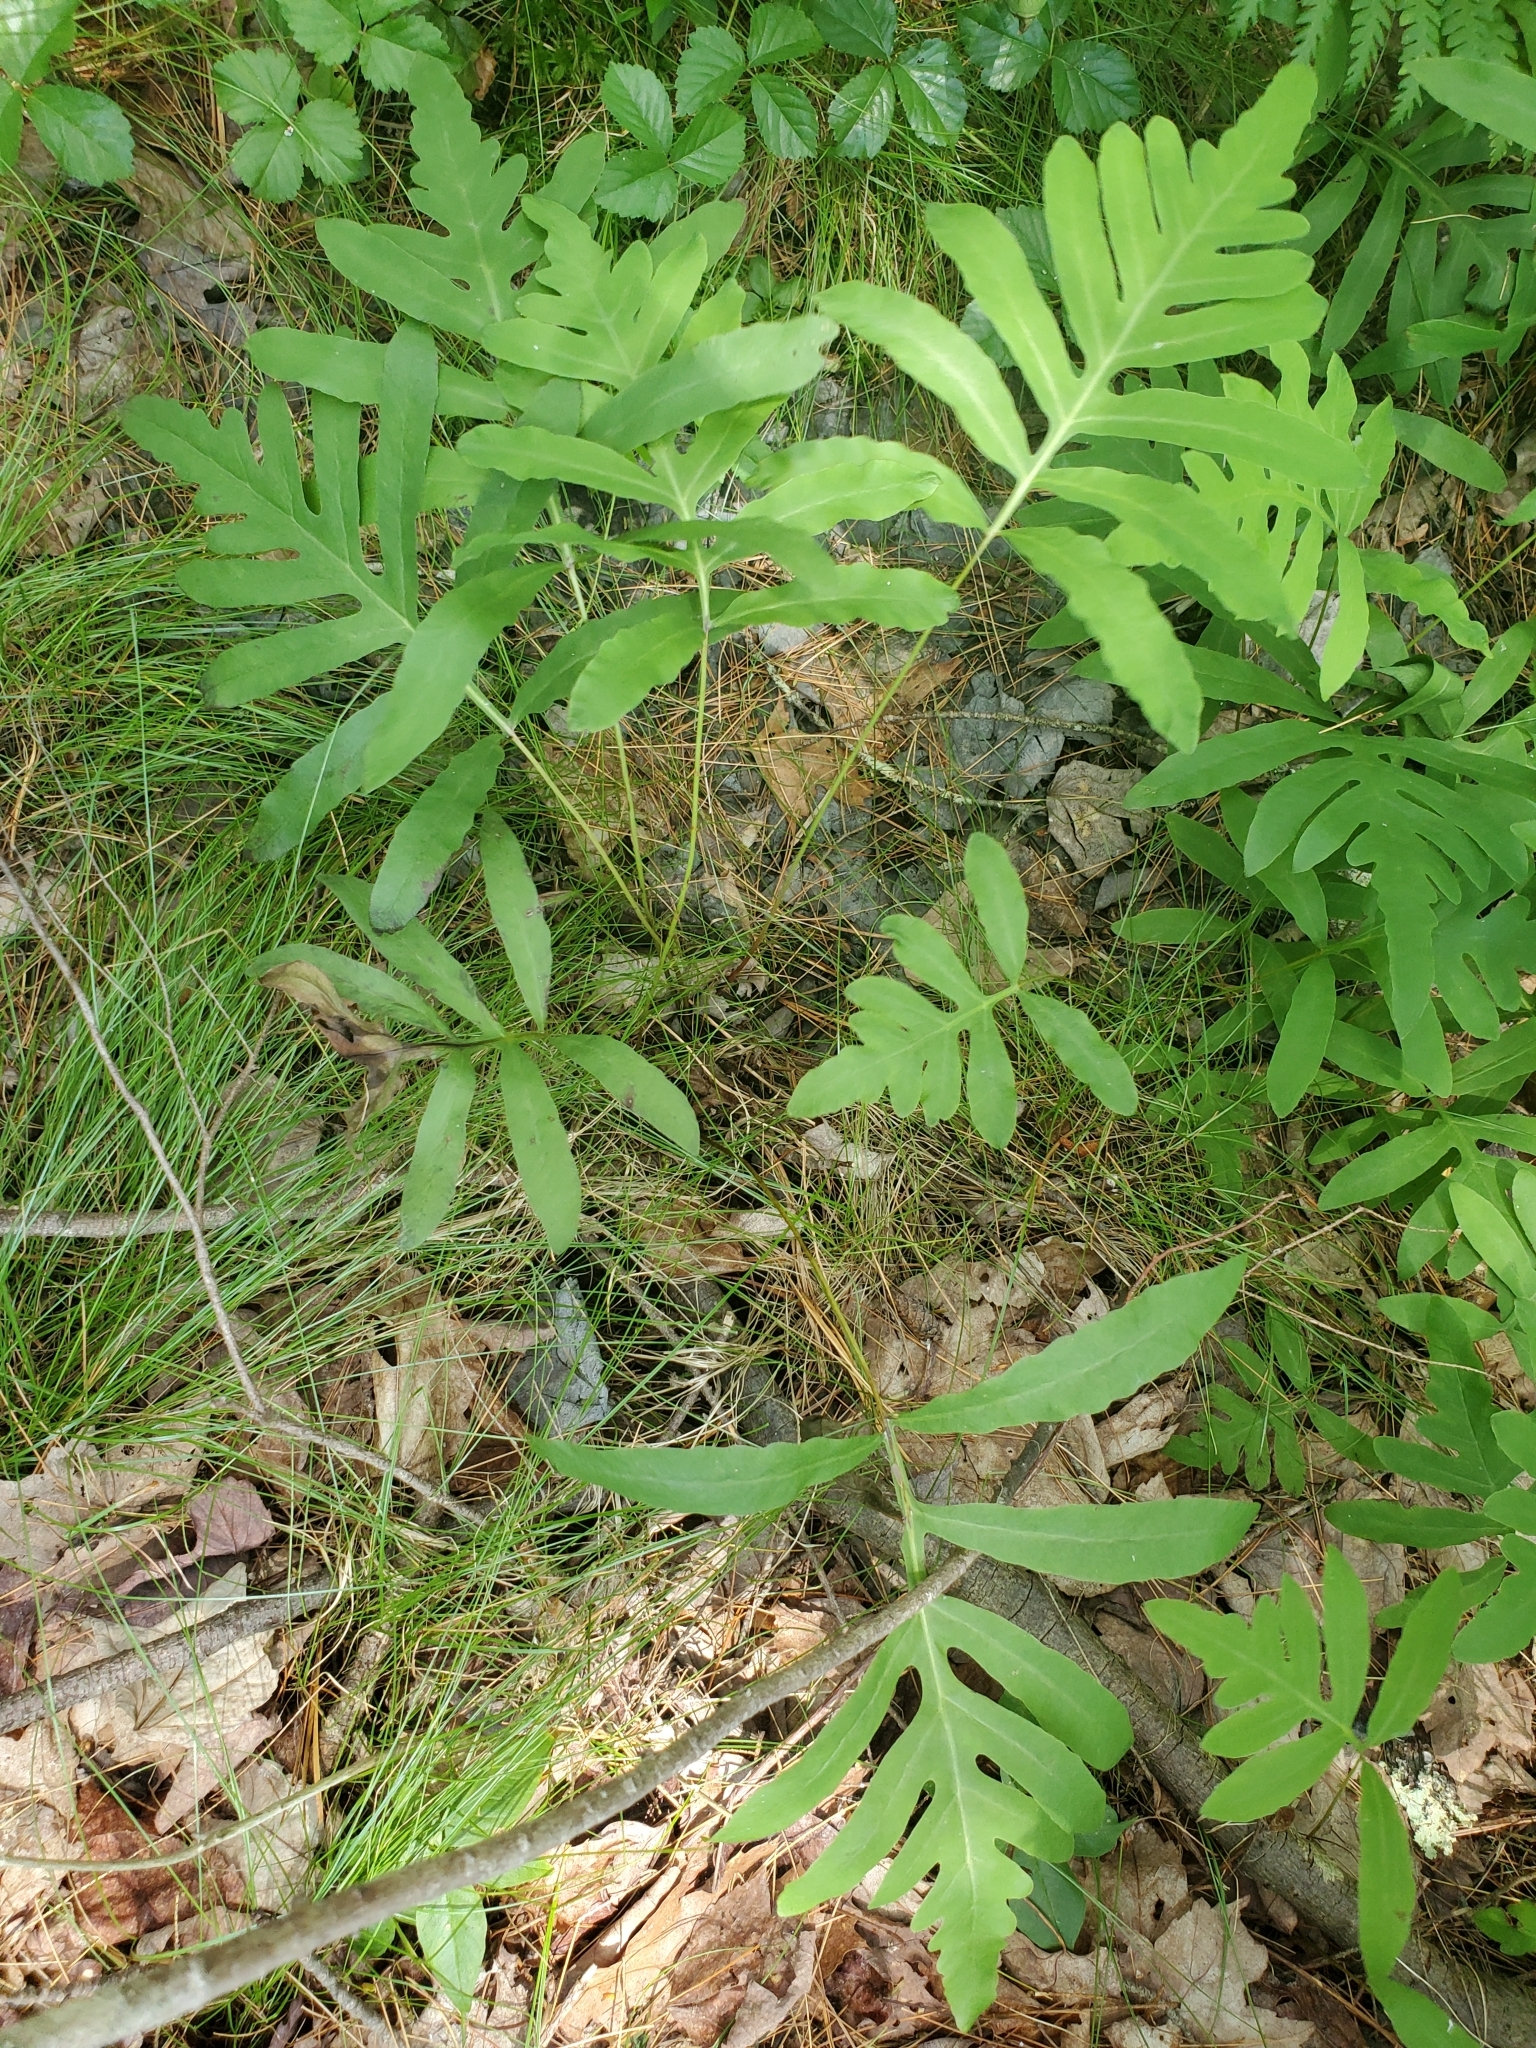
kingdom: Plantae
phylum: Tracheophyta
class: Polypodiopsida
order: Polypodiales
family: Onocleaceae
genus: Onoclea
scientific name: Onoclea sensibilis
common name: Sensitive fern
